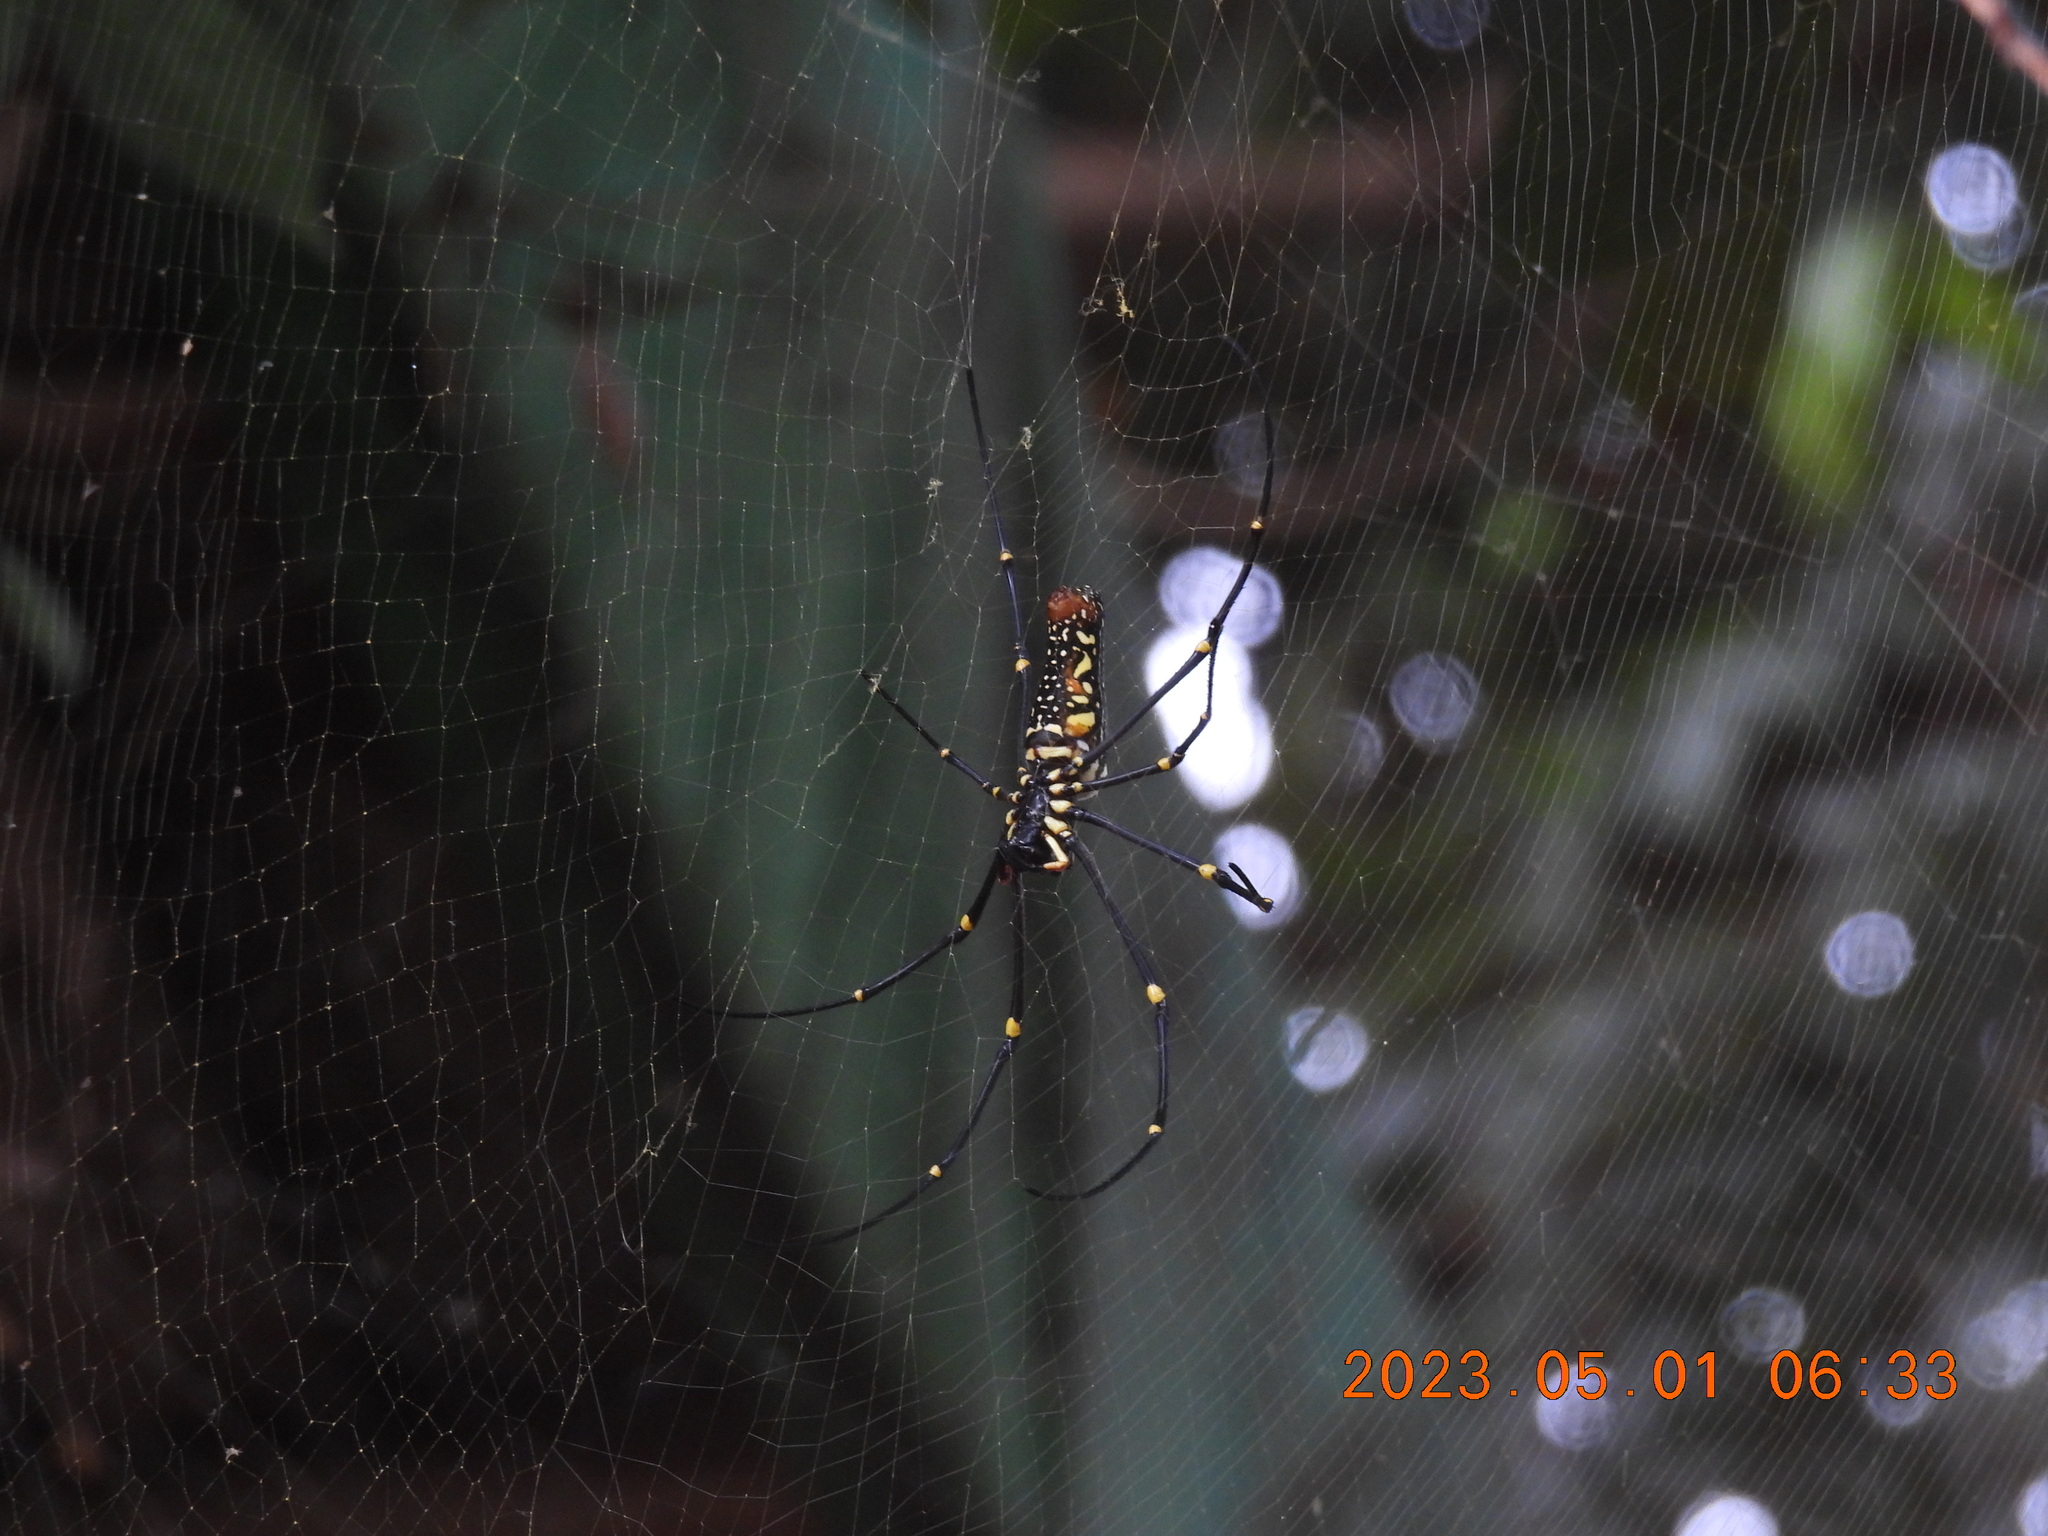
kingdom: Animalia
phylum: Arthropoda
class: Arachnida
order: Araneae
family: Araneidae
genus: Nephila
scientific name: Nephila pilipes
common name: Giant golden orb weaver
